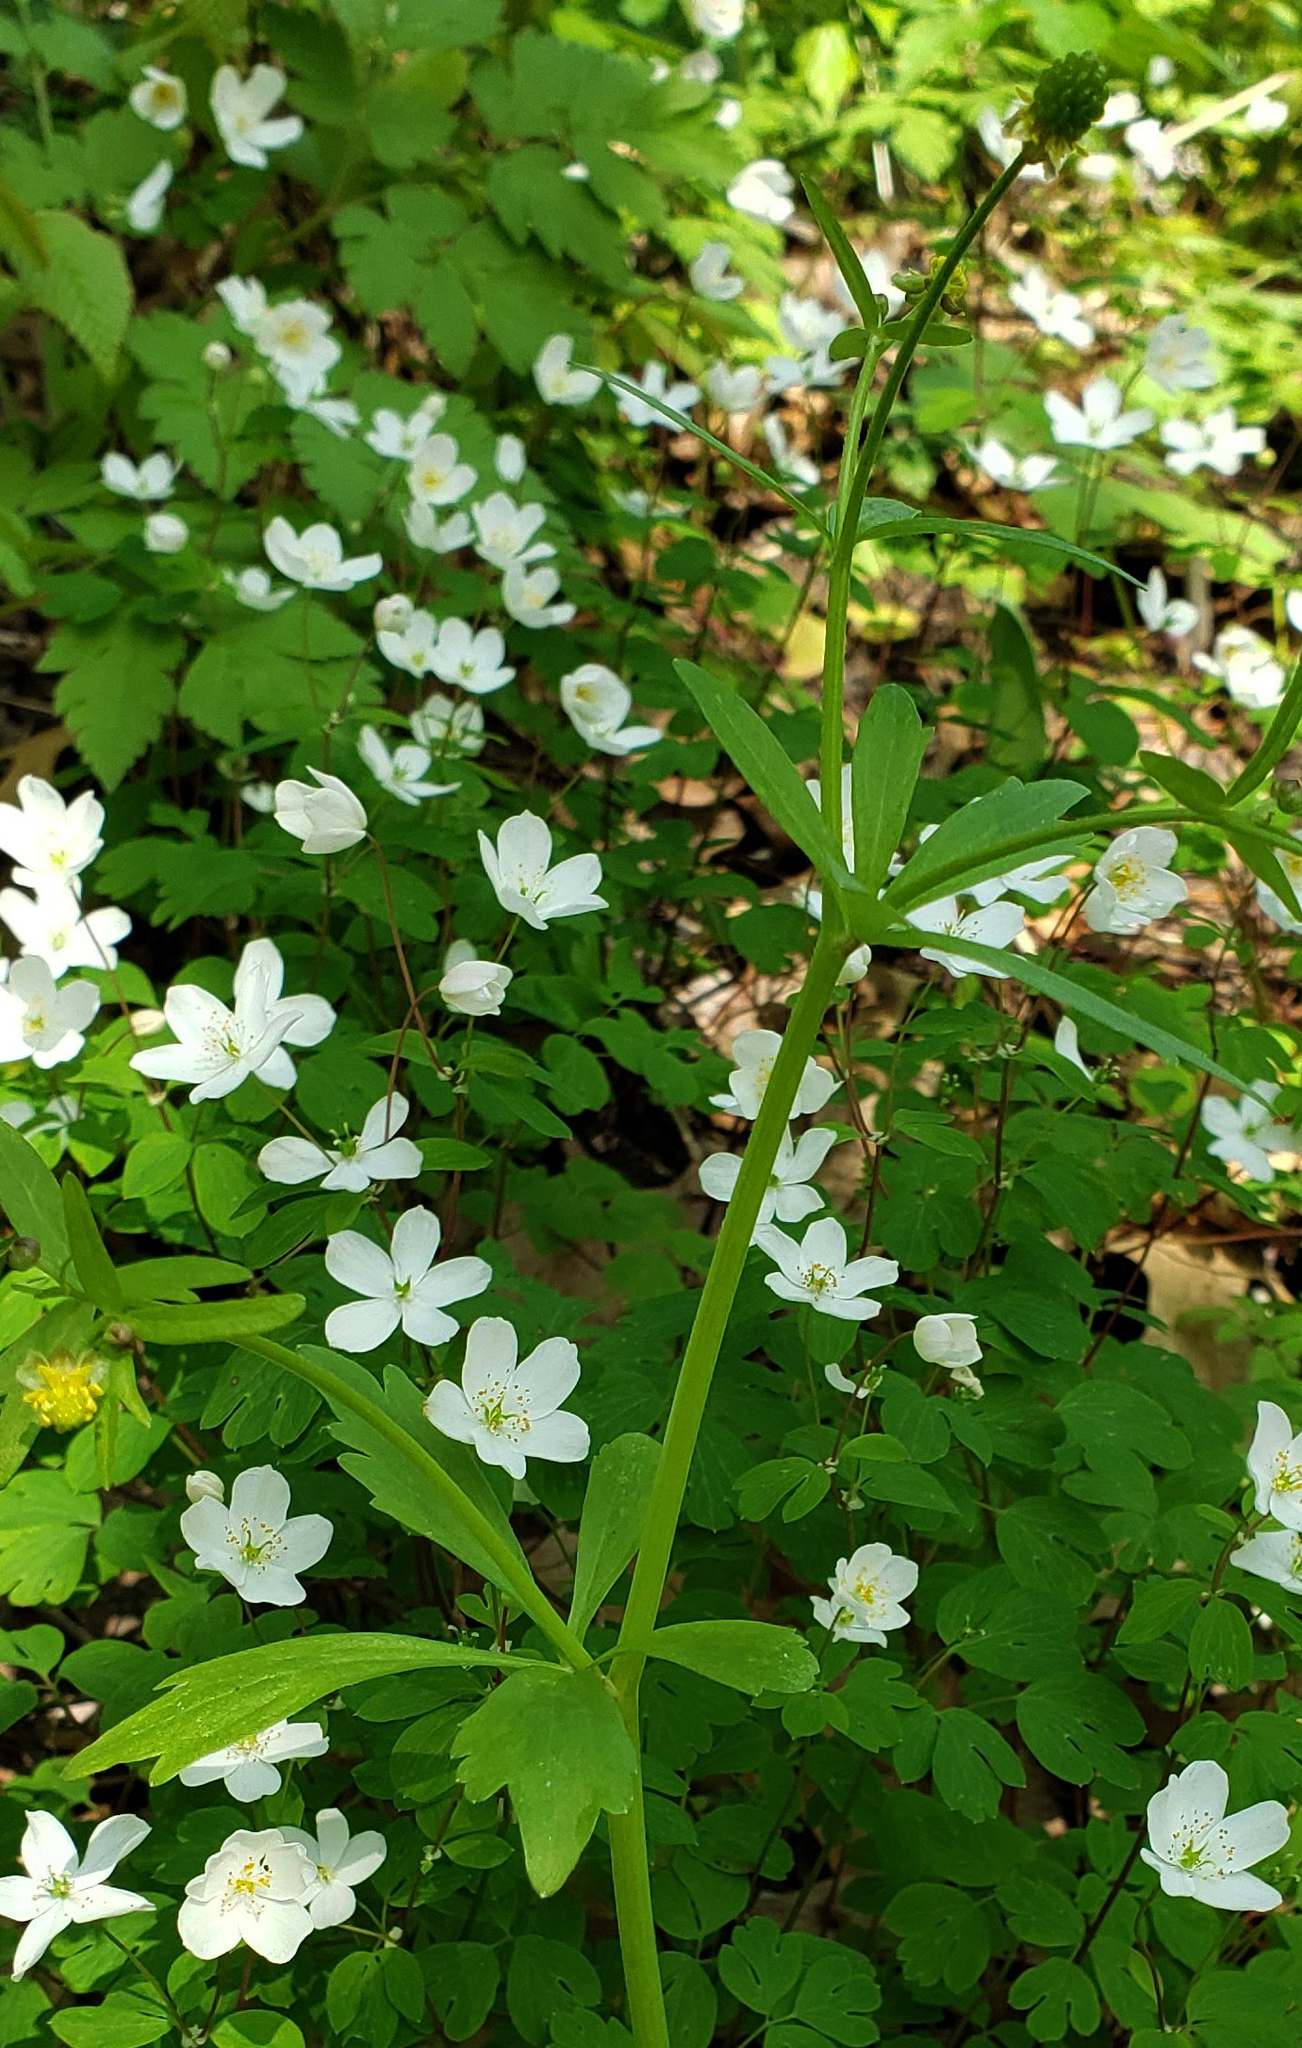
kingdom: Plantae
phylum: Tracheophyta
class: Magnoliopsida
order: Ranunculales
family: Ranunculaceae
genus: Ranunculus
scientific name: Ranunculus abortivus
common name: Early wood buttercup
